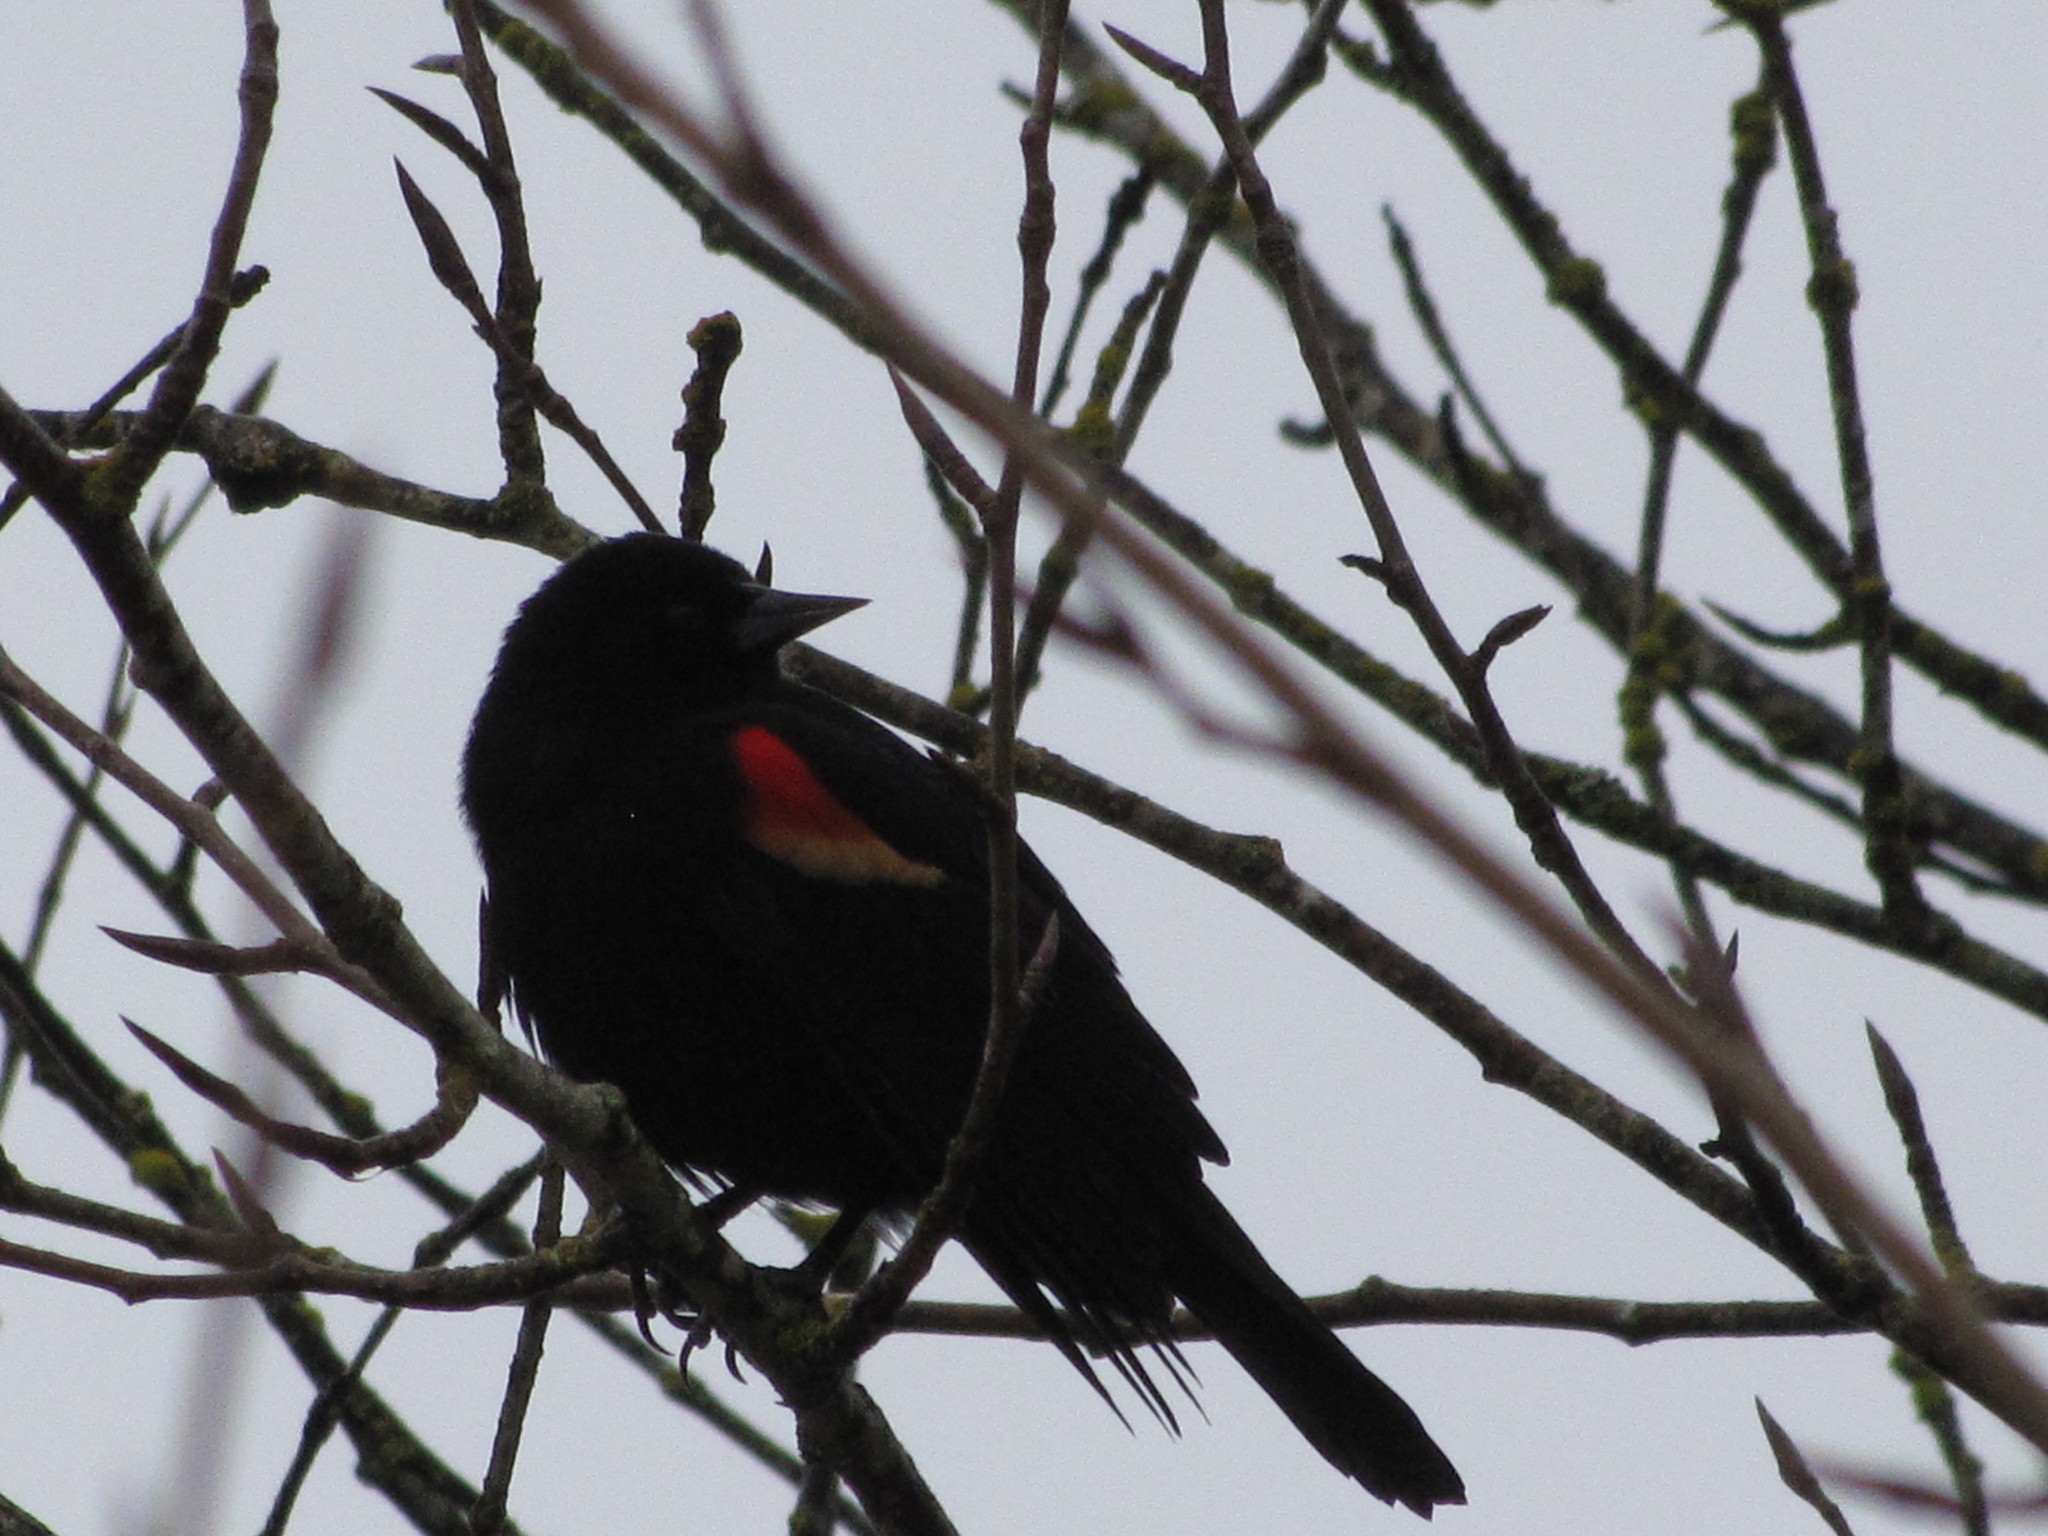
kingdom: Animalia
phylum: Chordata
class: Aves
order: Passeriformes
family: Icteridae
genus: Agelaius
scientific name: Agelaius phoeniceus
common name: Red-winged blackbird
